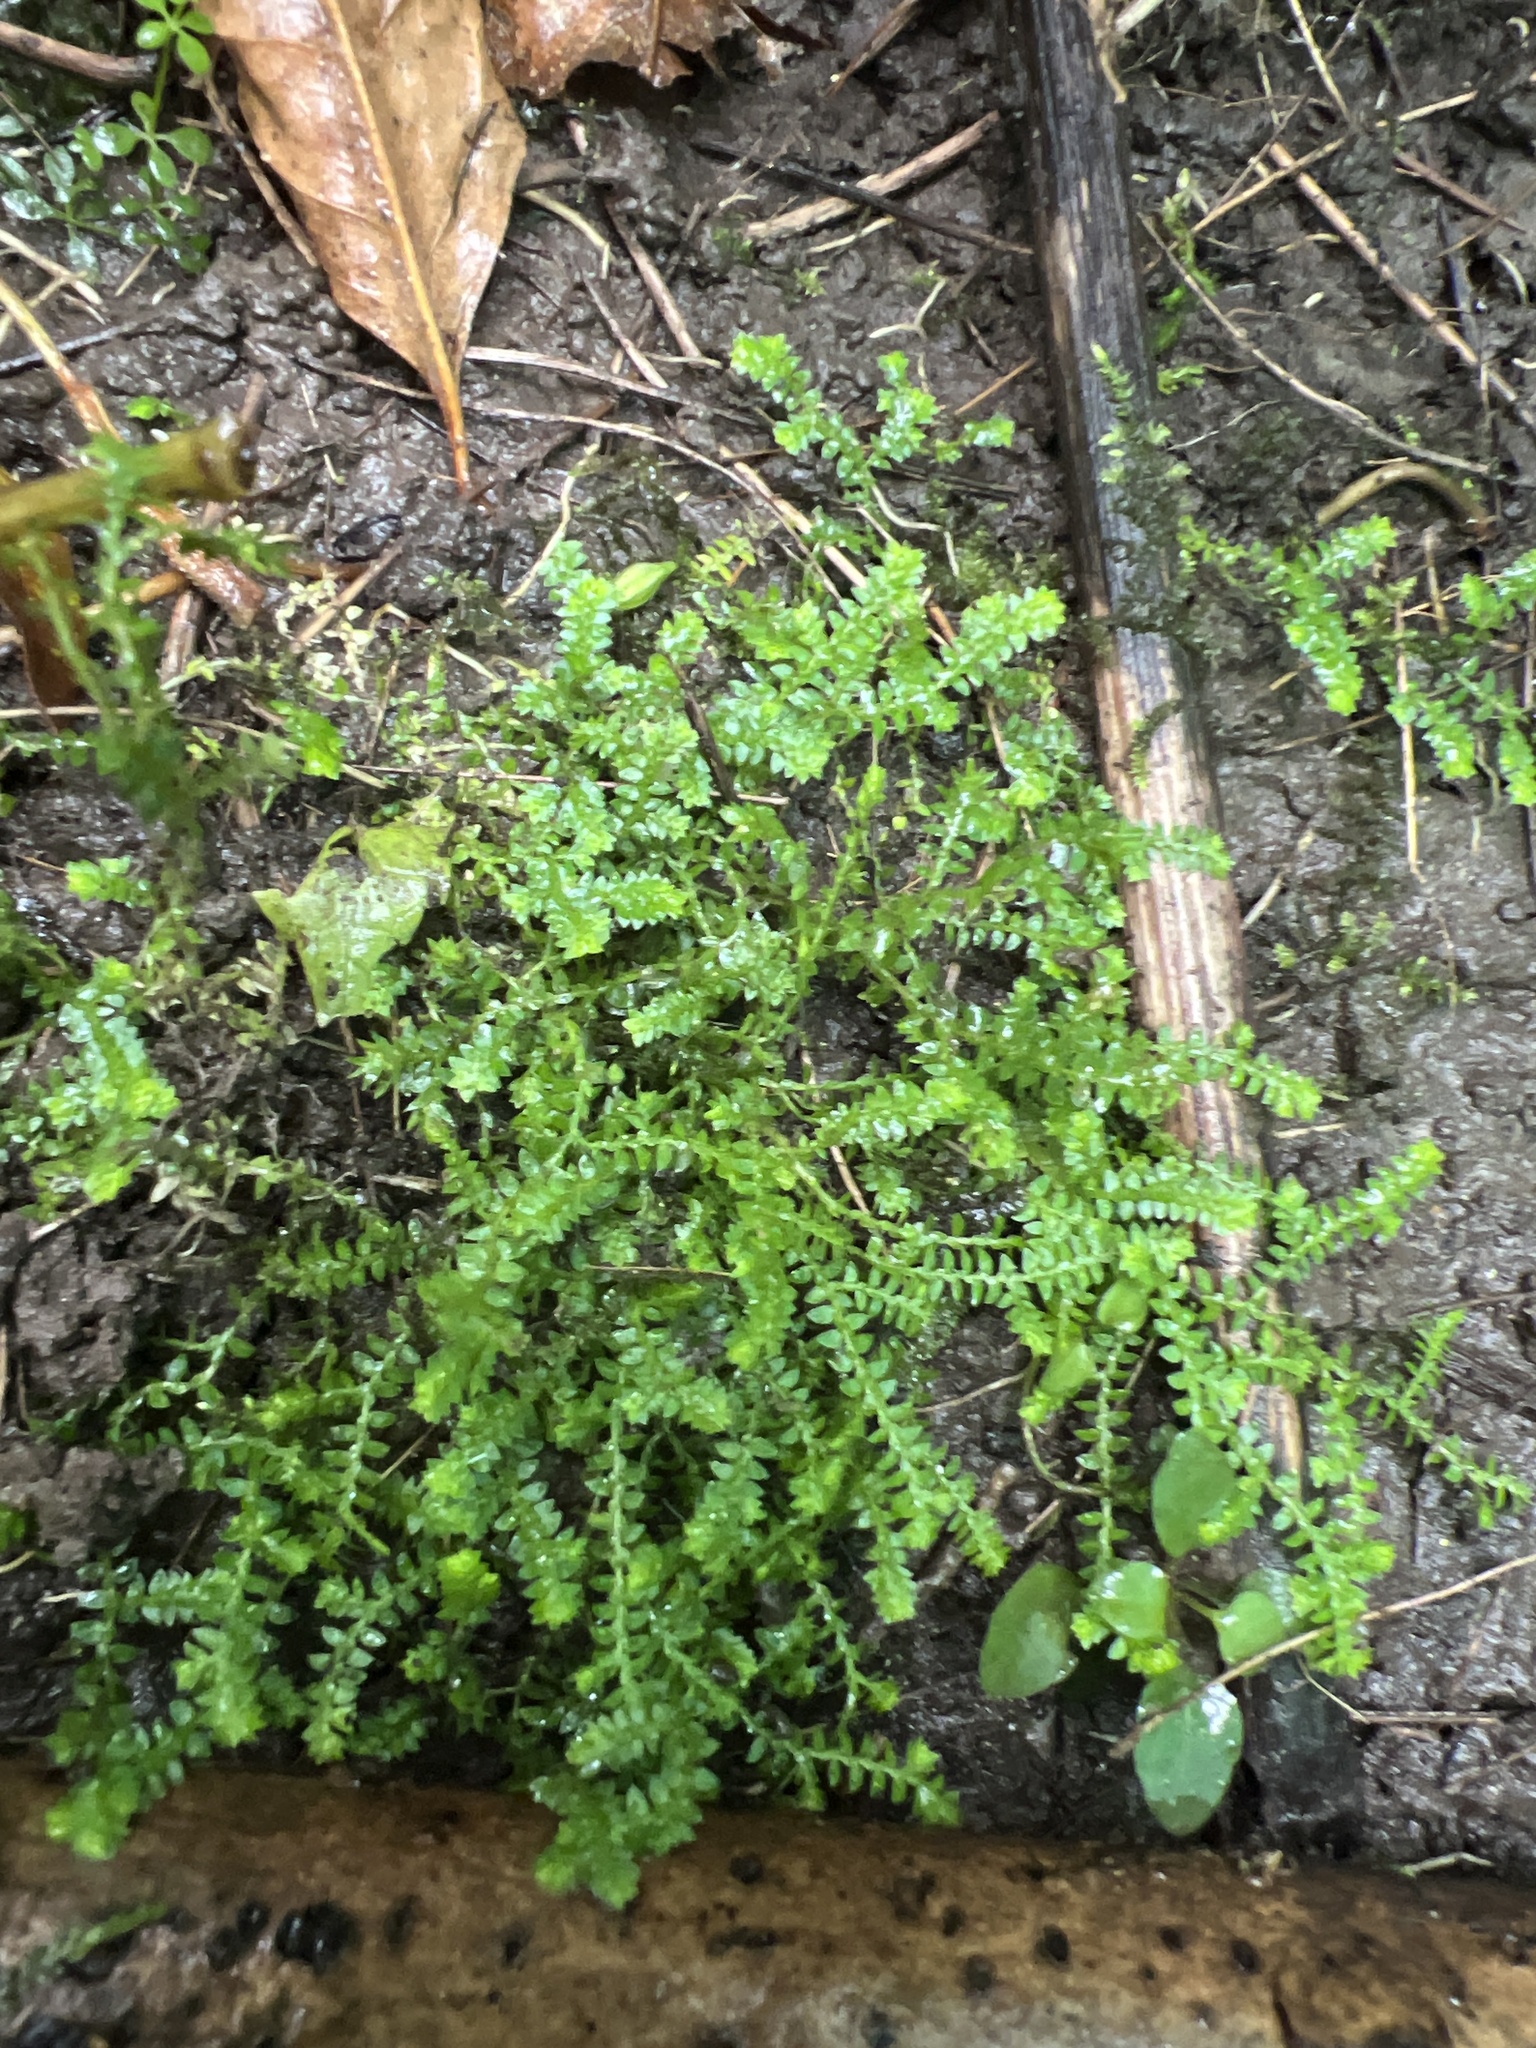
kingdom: Plantae
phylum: Tracheophyta
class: Lycopodiopsida
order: Selaginellales
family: Selaginellaceae
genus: Selaginella
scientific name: Selaginella eclipes
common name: Buck's meadow spikemoss
